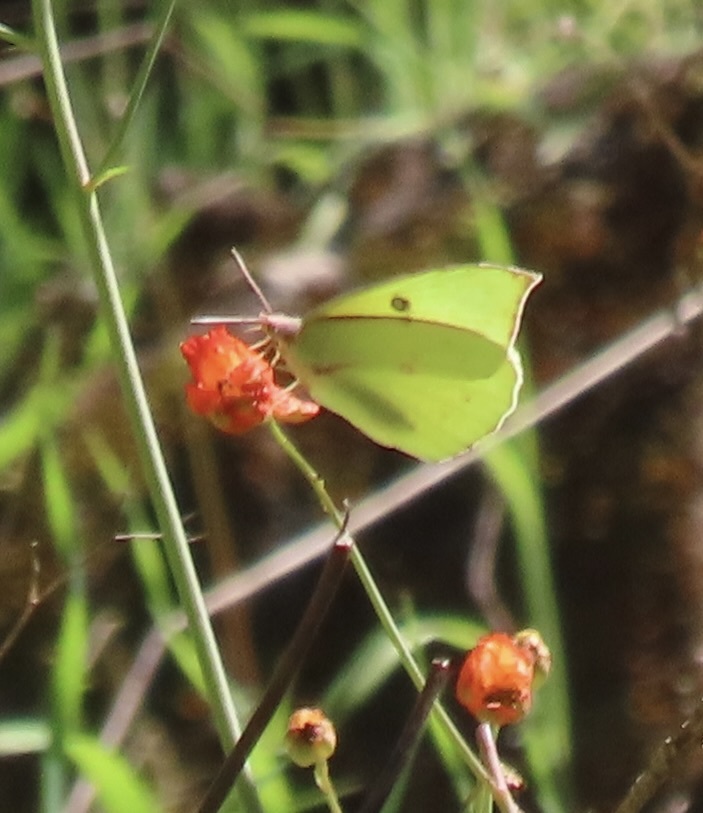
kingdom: Animalia
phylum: Arthropoda
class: Insecta
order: Lepidoptera
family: Pieridae
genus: Zerene
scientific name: Zerene eurydice
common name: California dogface
